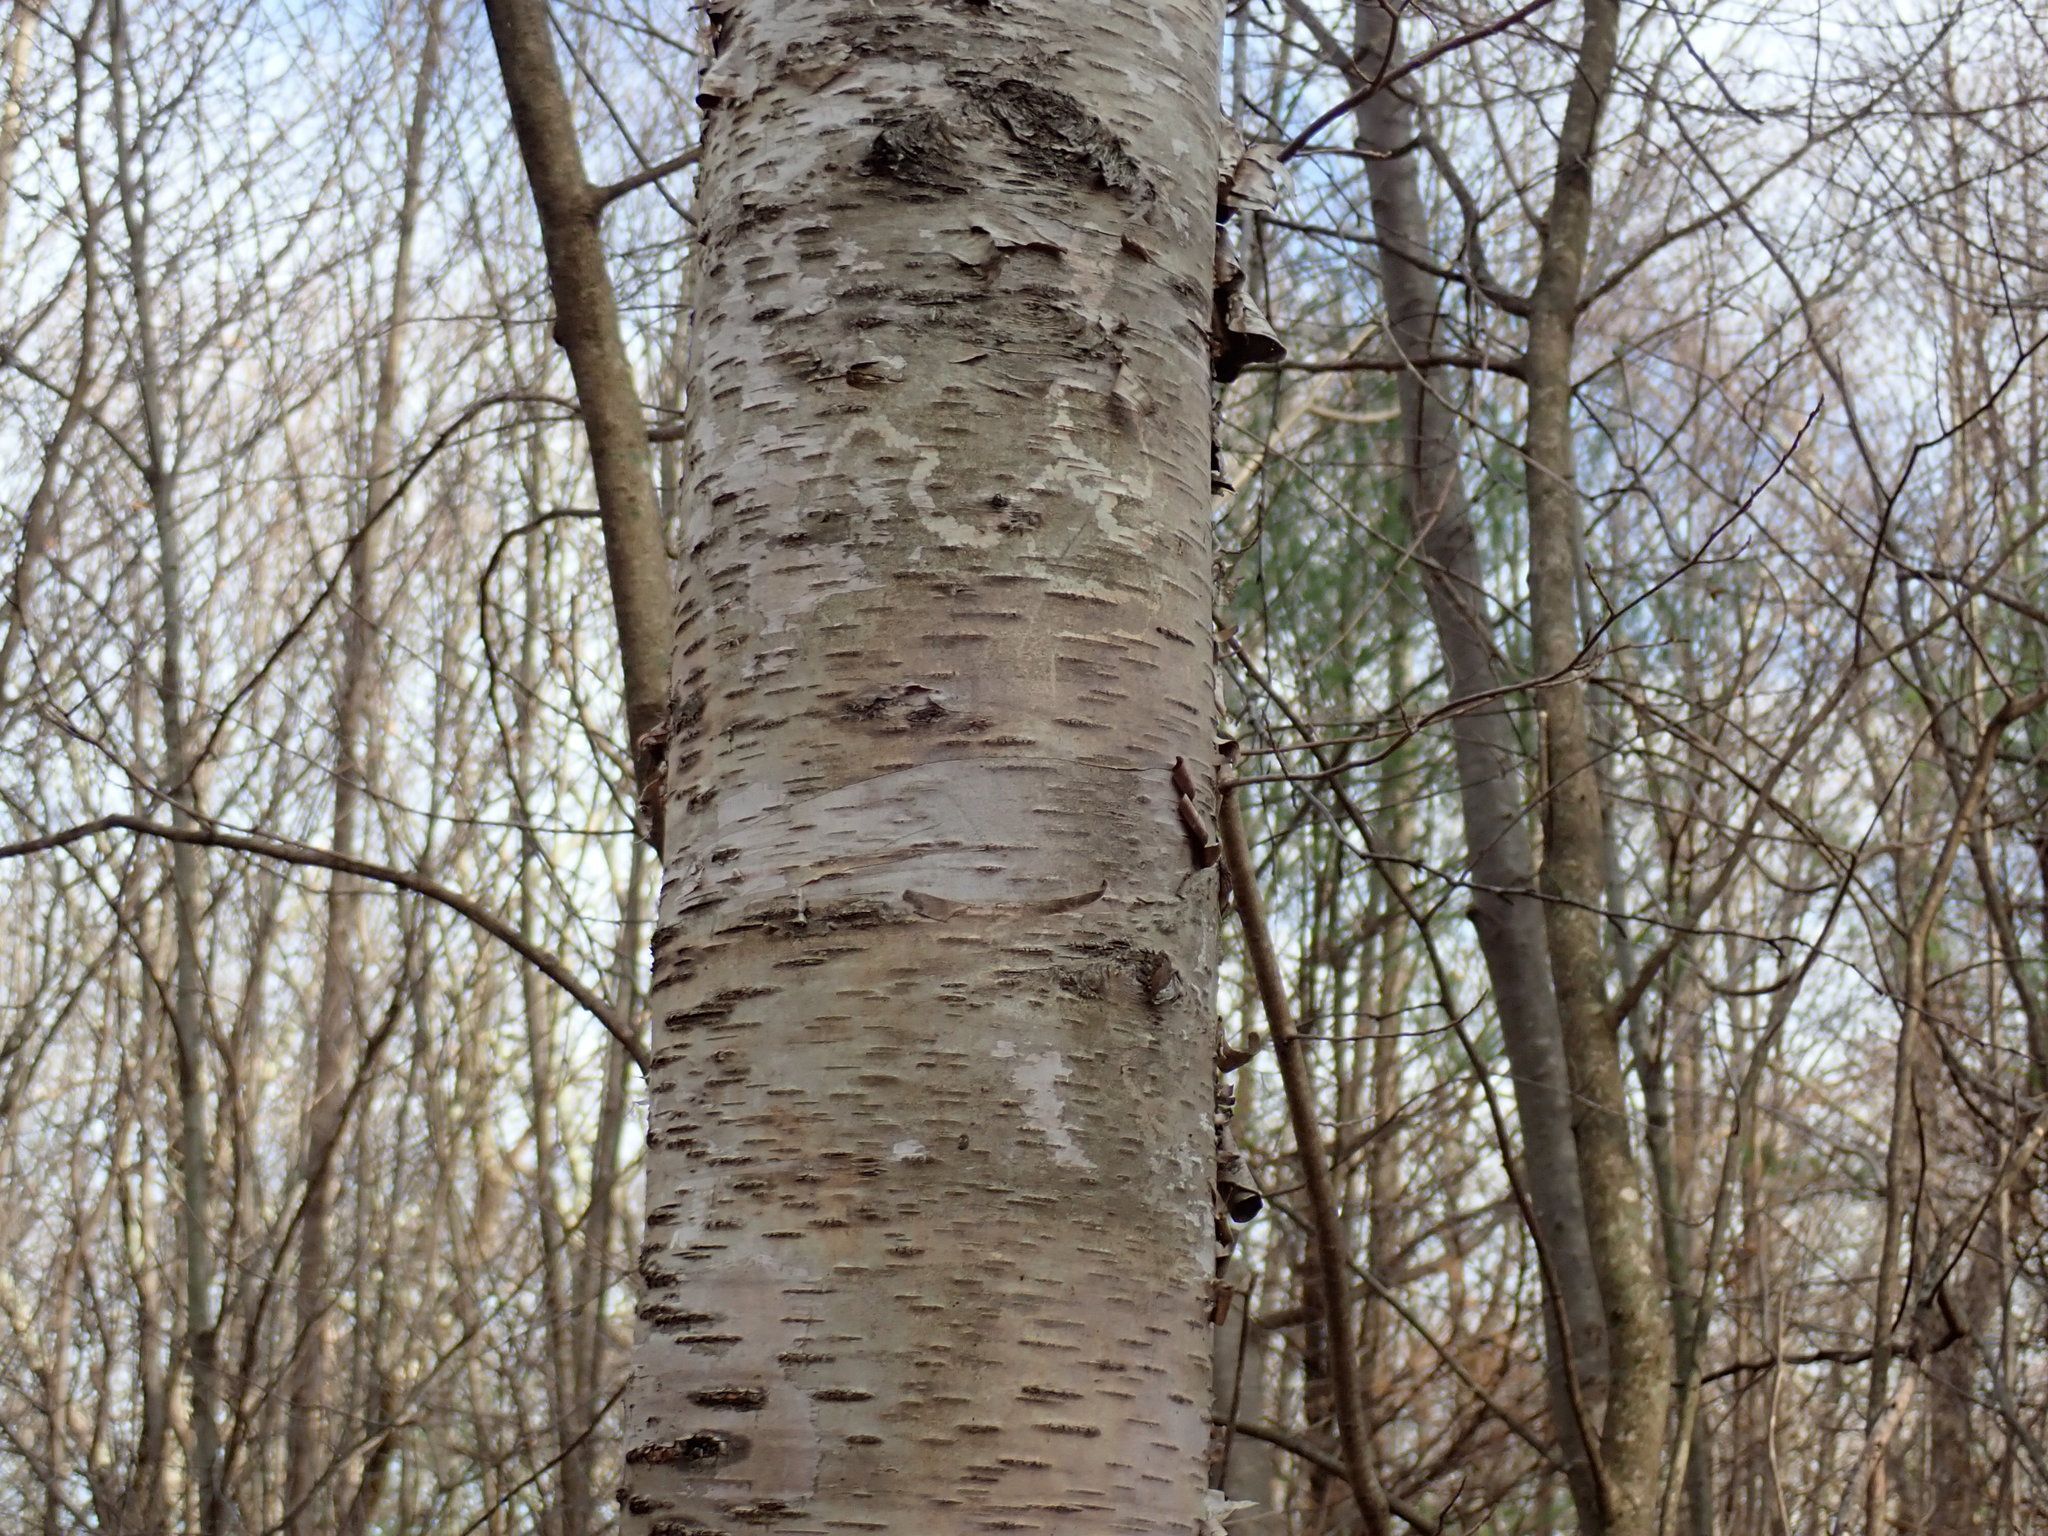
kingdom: Plantae
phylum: Tracheophyta
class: Magnoliopsida
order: Fagales
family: Betulaceae
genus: Betula
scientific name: Betula papyrifera
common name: Paper birch
